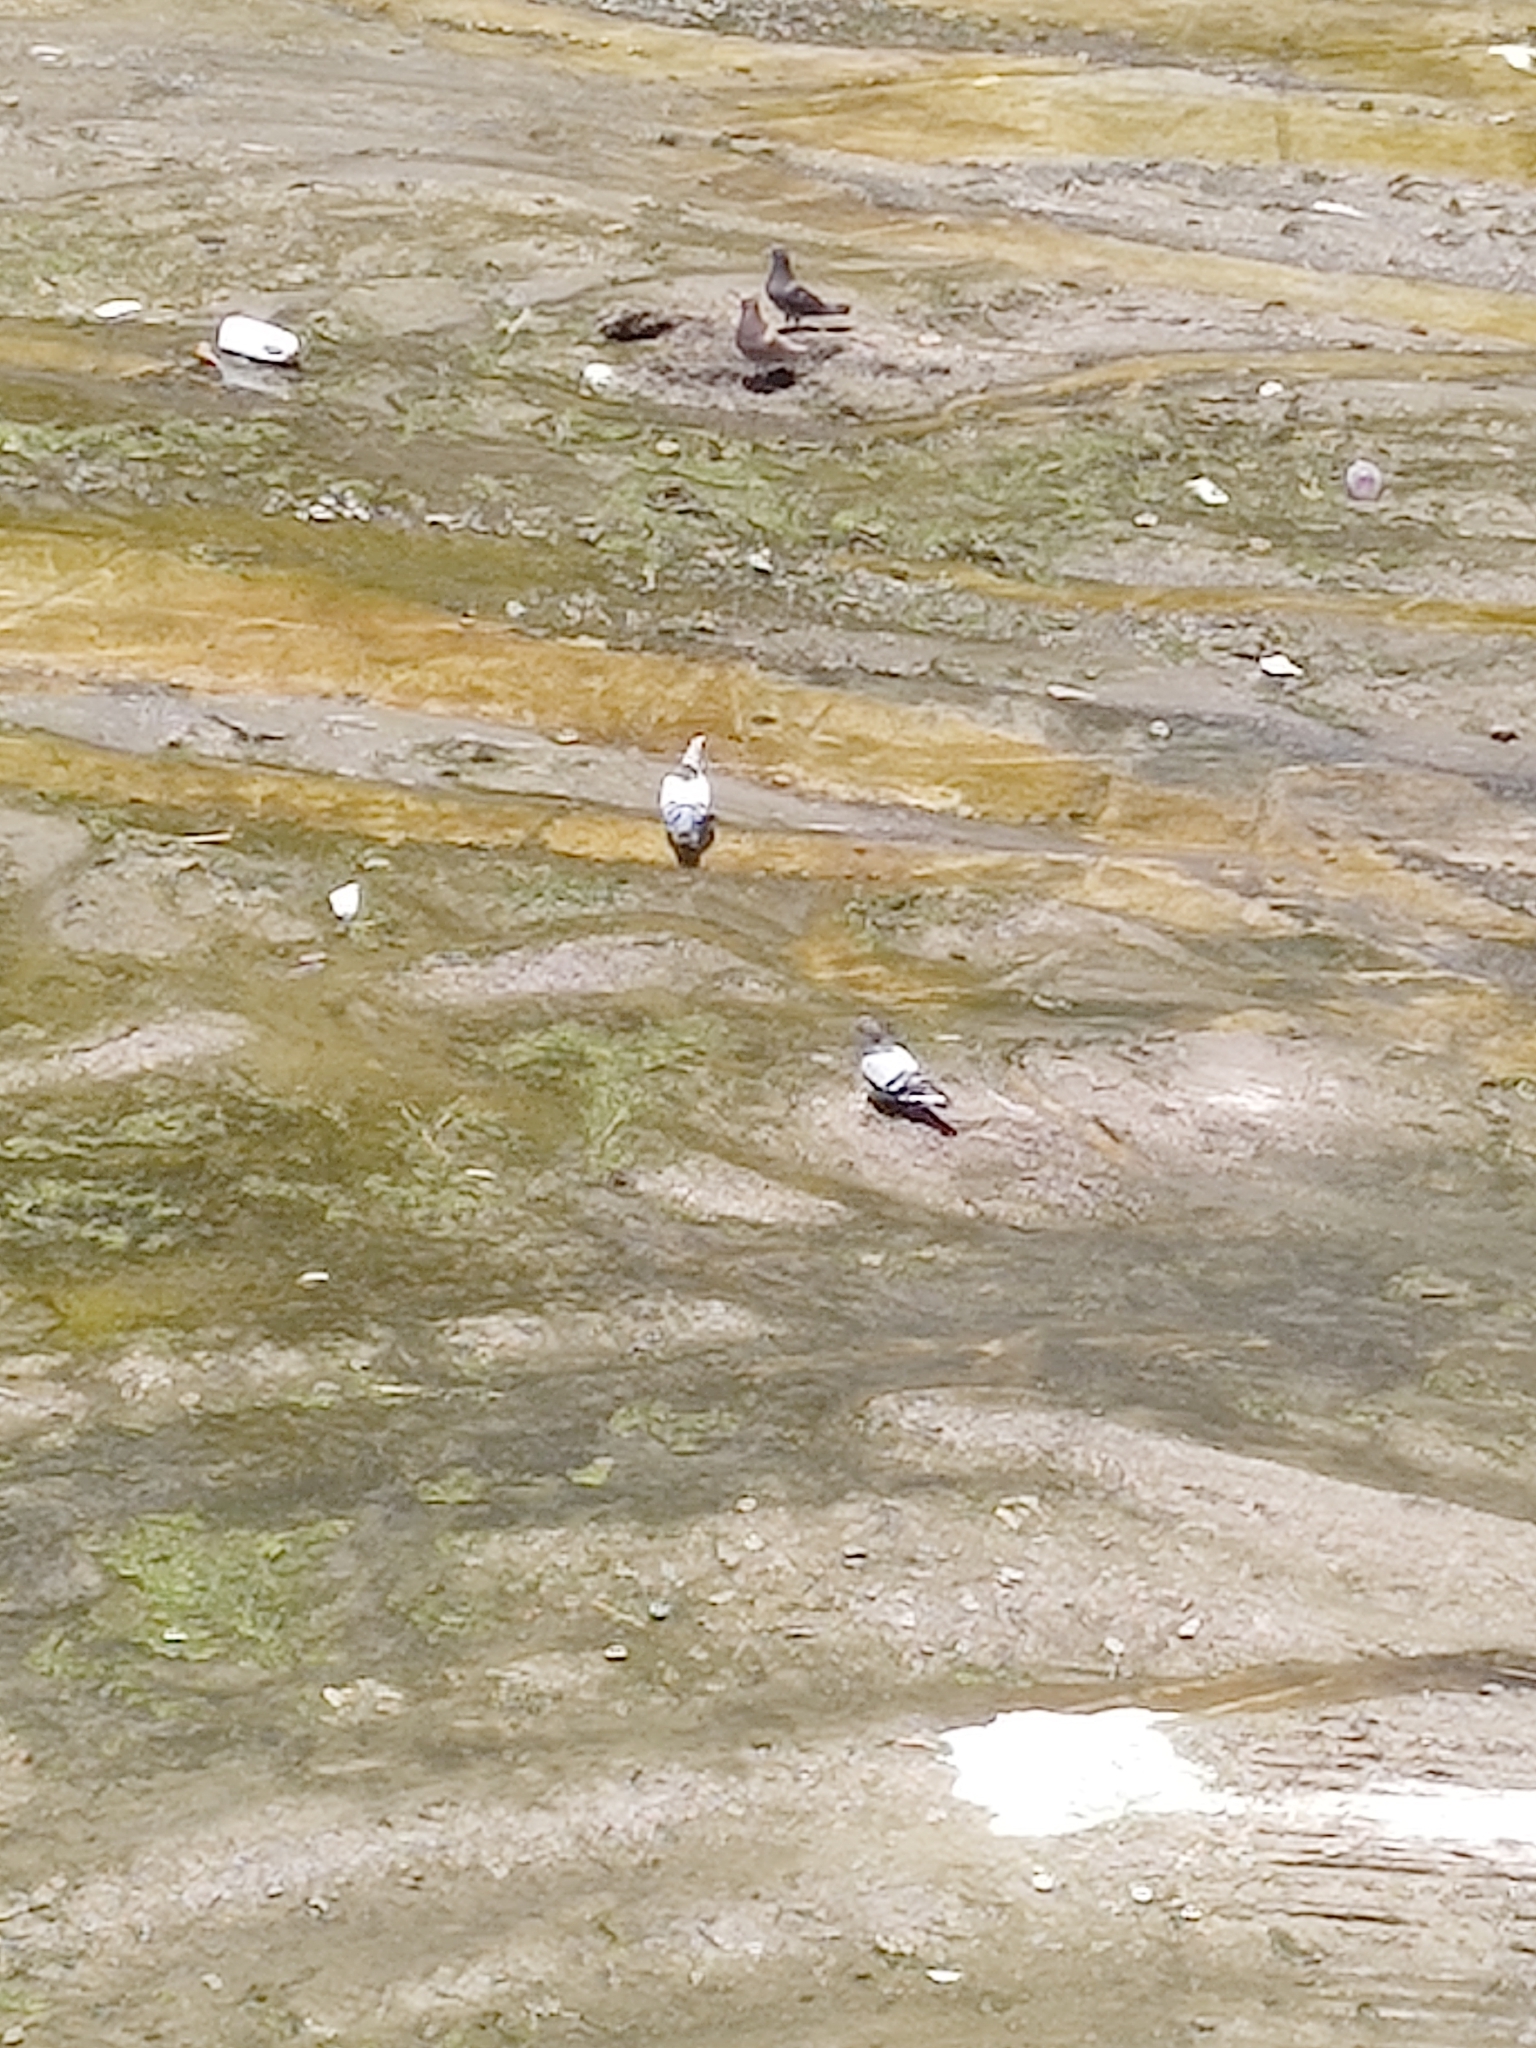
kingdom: Animalia
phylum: Chordata
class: Aves
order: Columbiformes
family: Columbidae
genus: Columba
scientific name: Columba livia
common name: Rock pigeon
